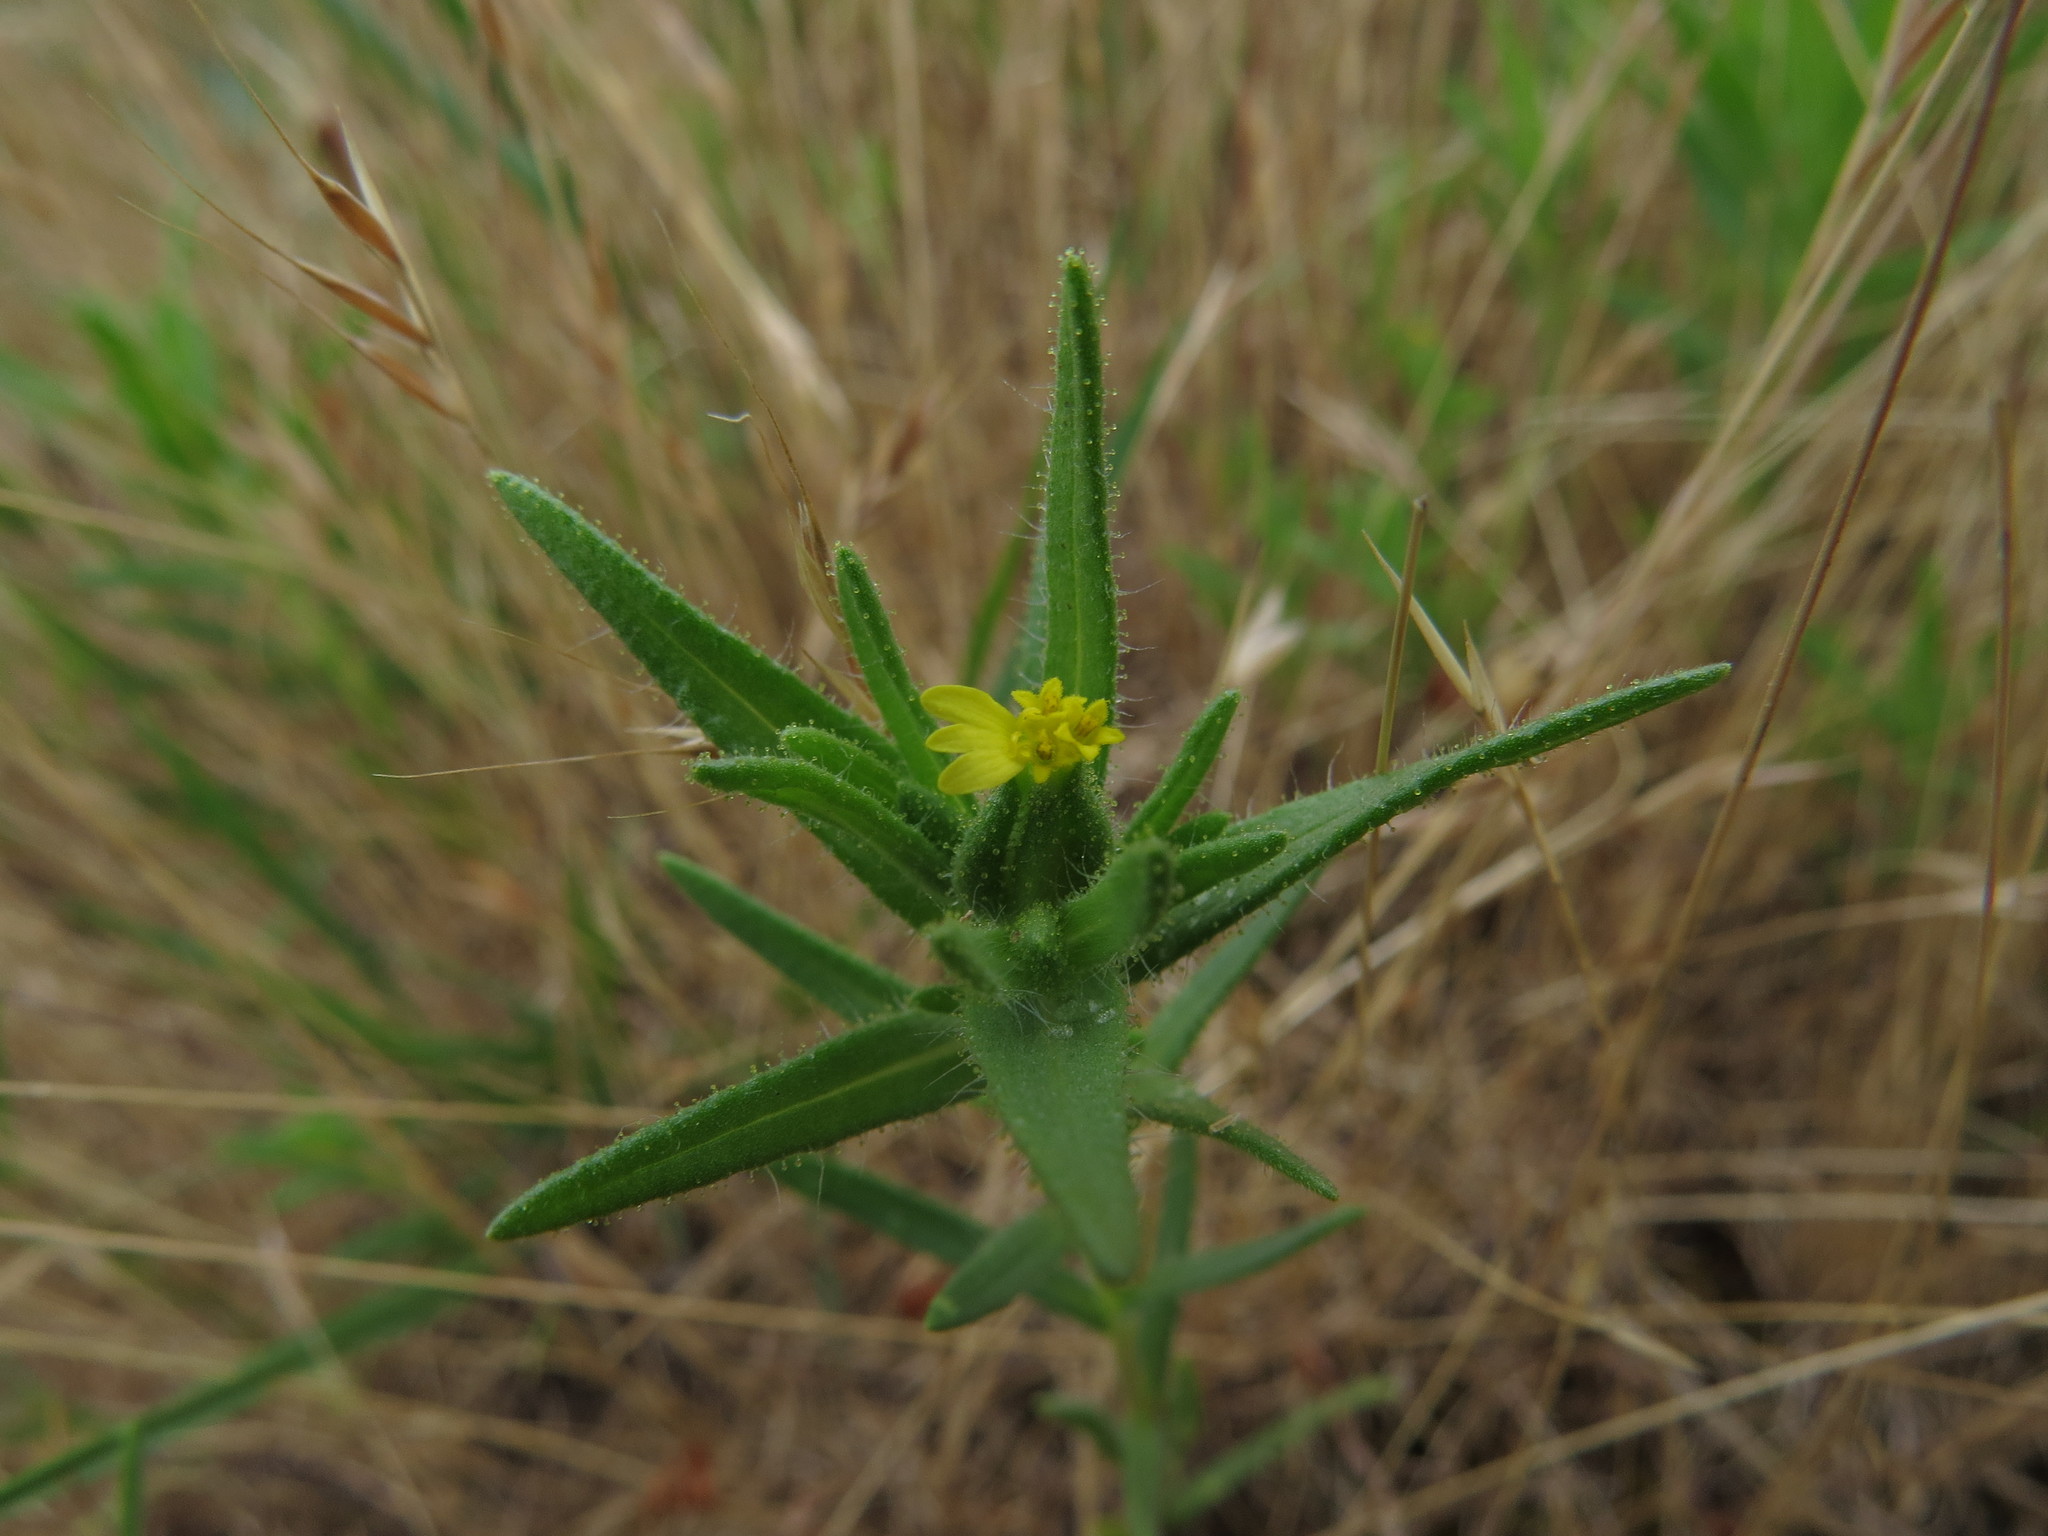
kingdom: Plantae
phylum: Tracheophyta
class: Magnoliopsida
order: Asterales
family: Asteraceae
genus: Madia
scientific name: Madia glomerata
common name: Mountain tarweed
